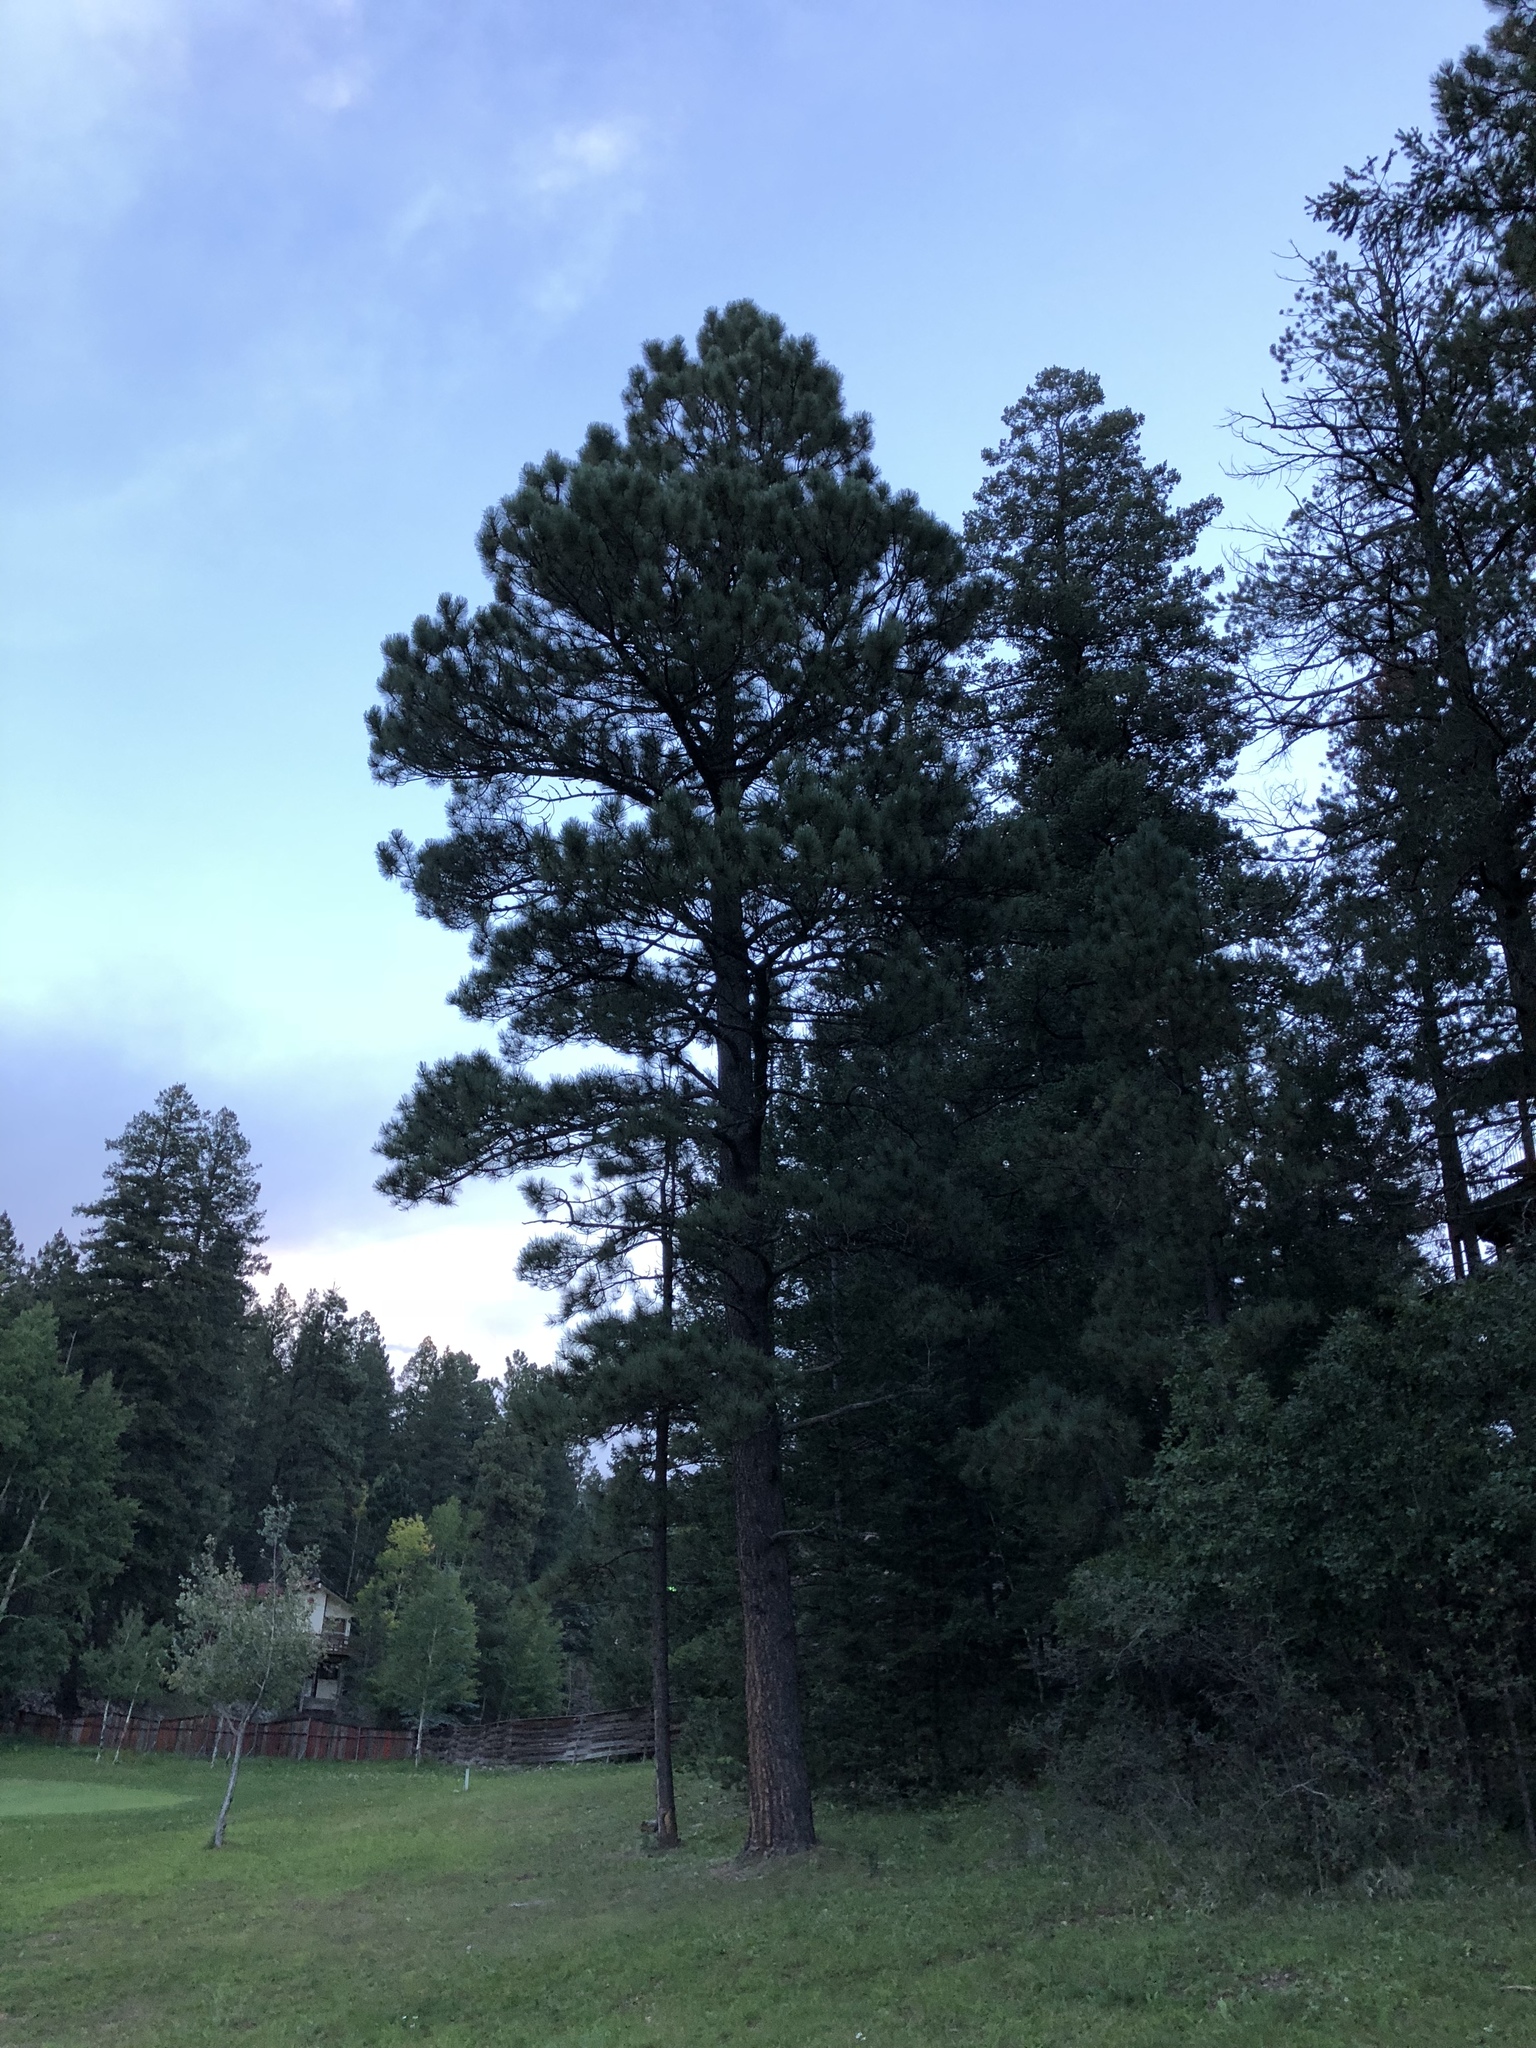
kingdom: Plantae
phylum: Tracheophyta
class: Pinopsida
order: Pinales
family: Pinaceae
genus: Pinus
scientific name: Pinus ponderosa
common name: Western yellow-pine
